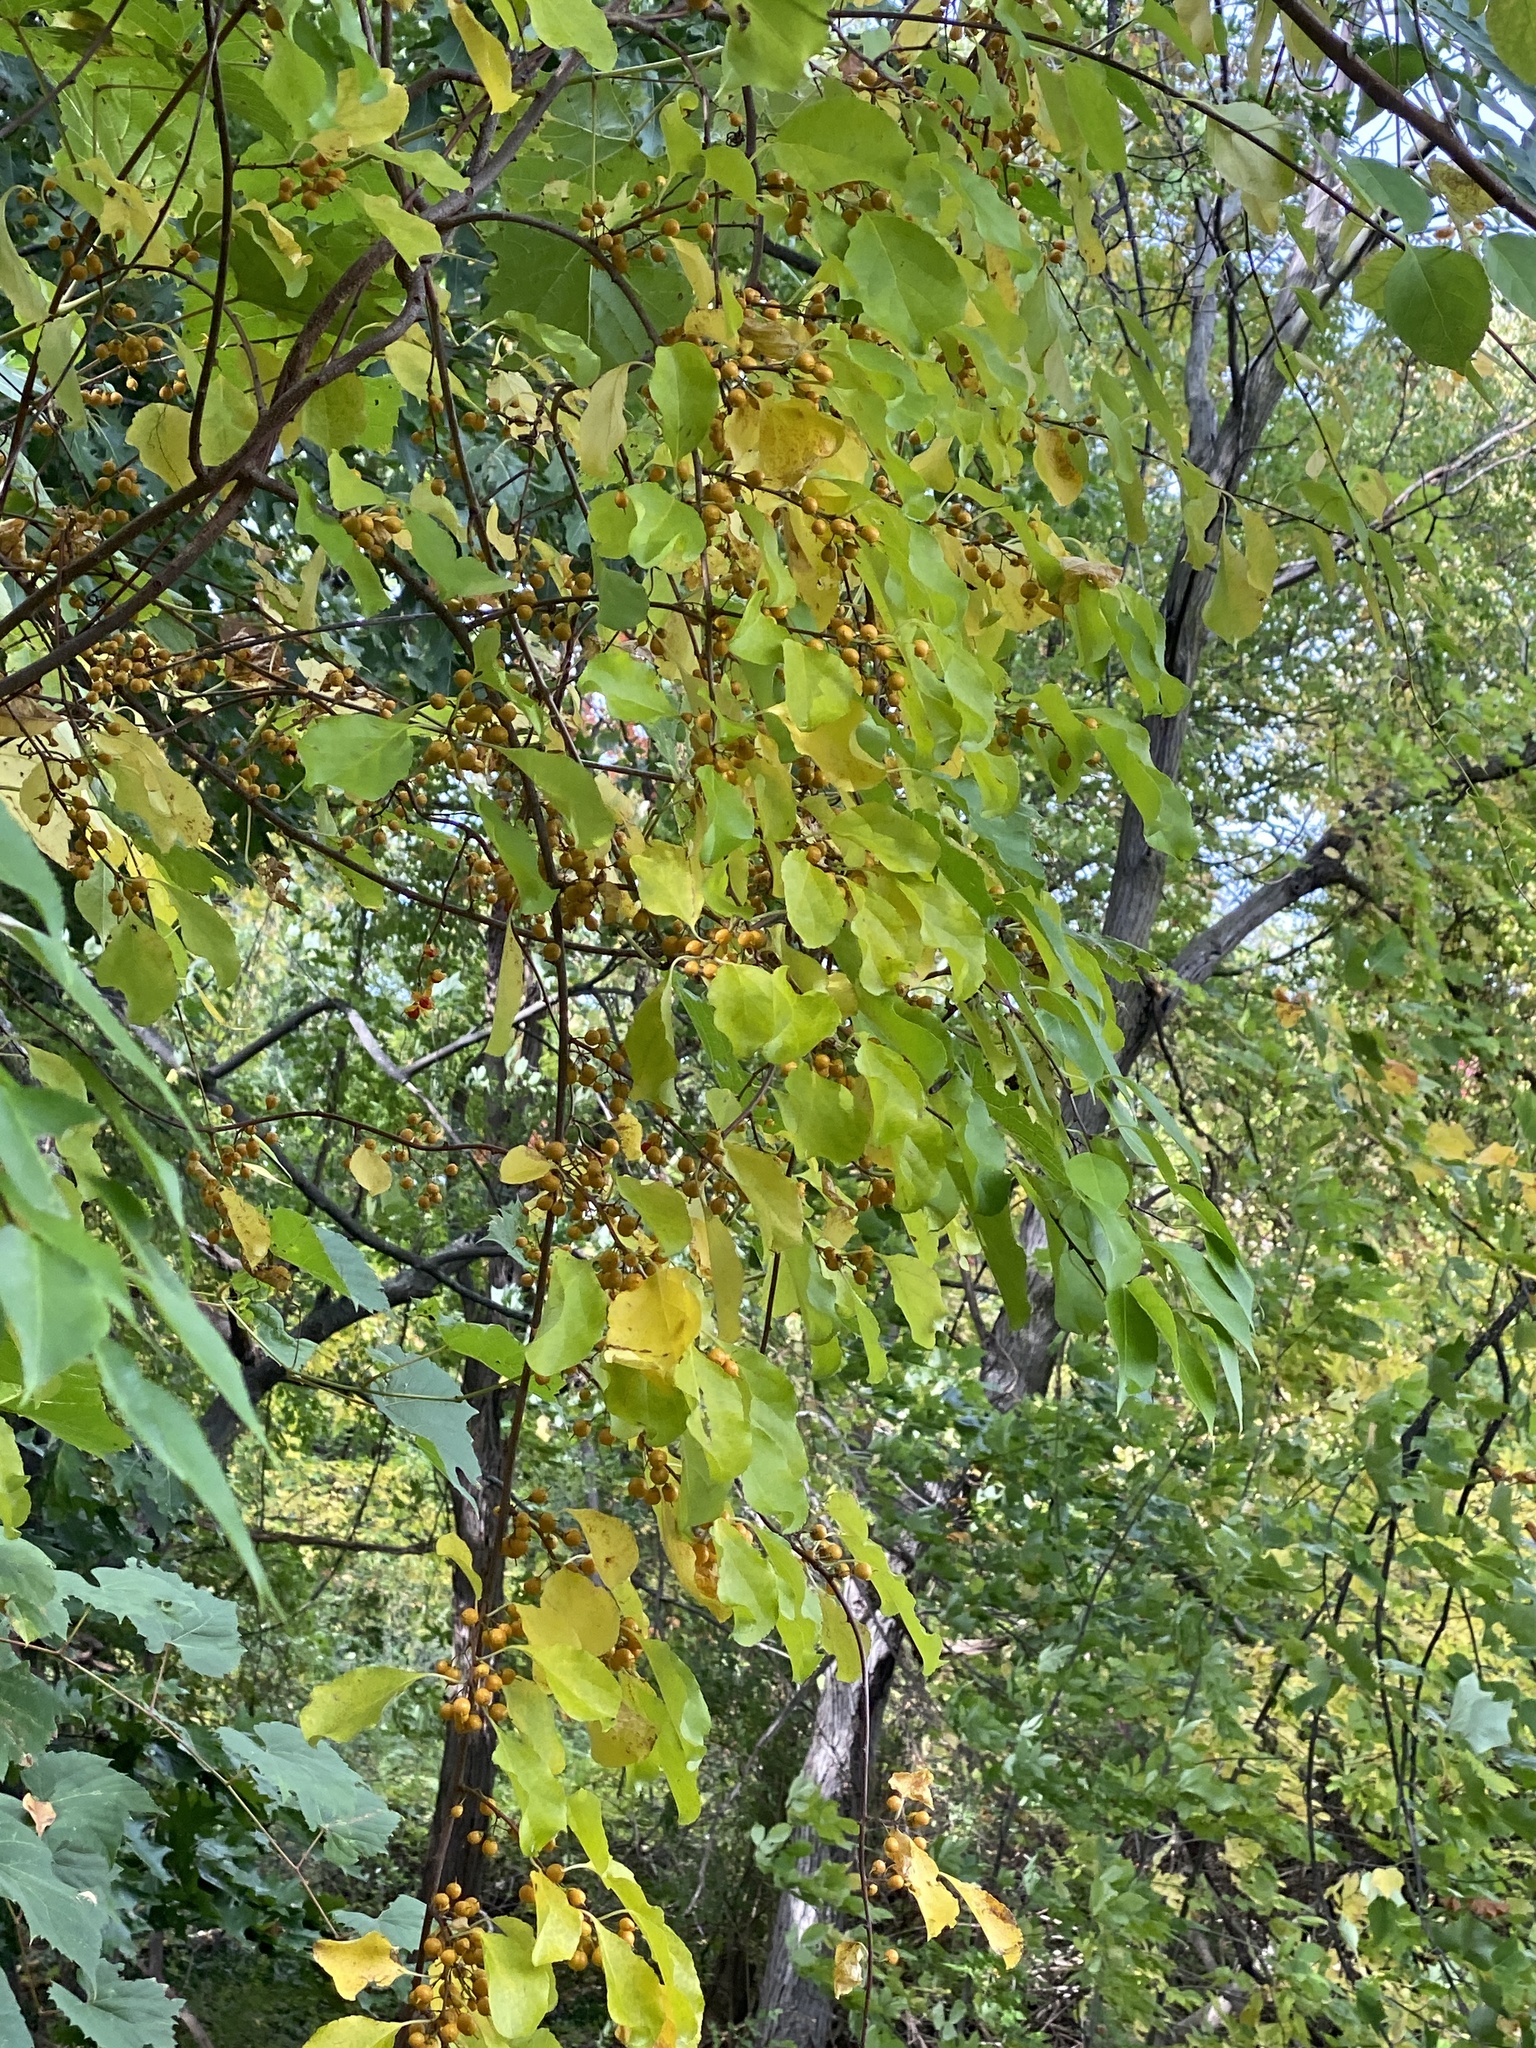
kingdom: Plantae
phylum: Tracheophyta
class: Magnoliopsida
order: Celastrales
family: Celastraceae
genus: Celastrus
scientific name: Celastrus orbiculatus
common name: Oriental bittersweet
